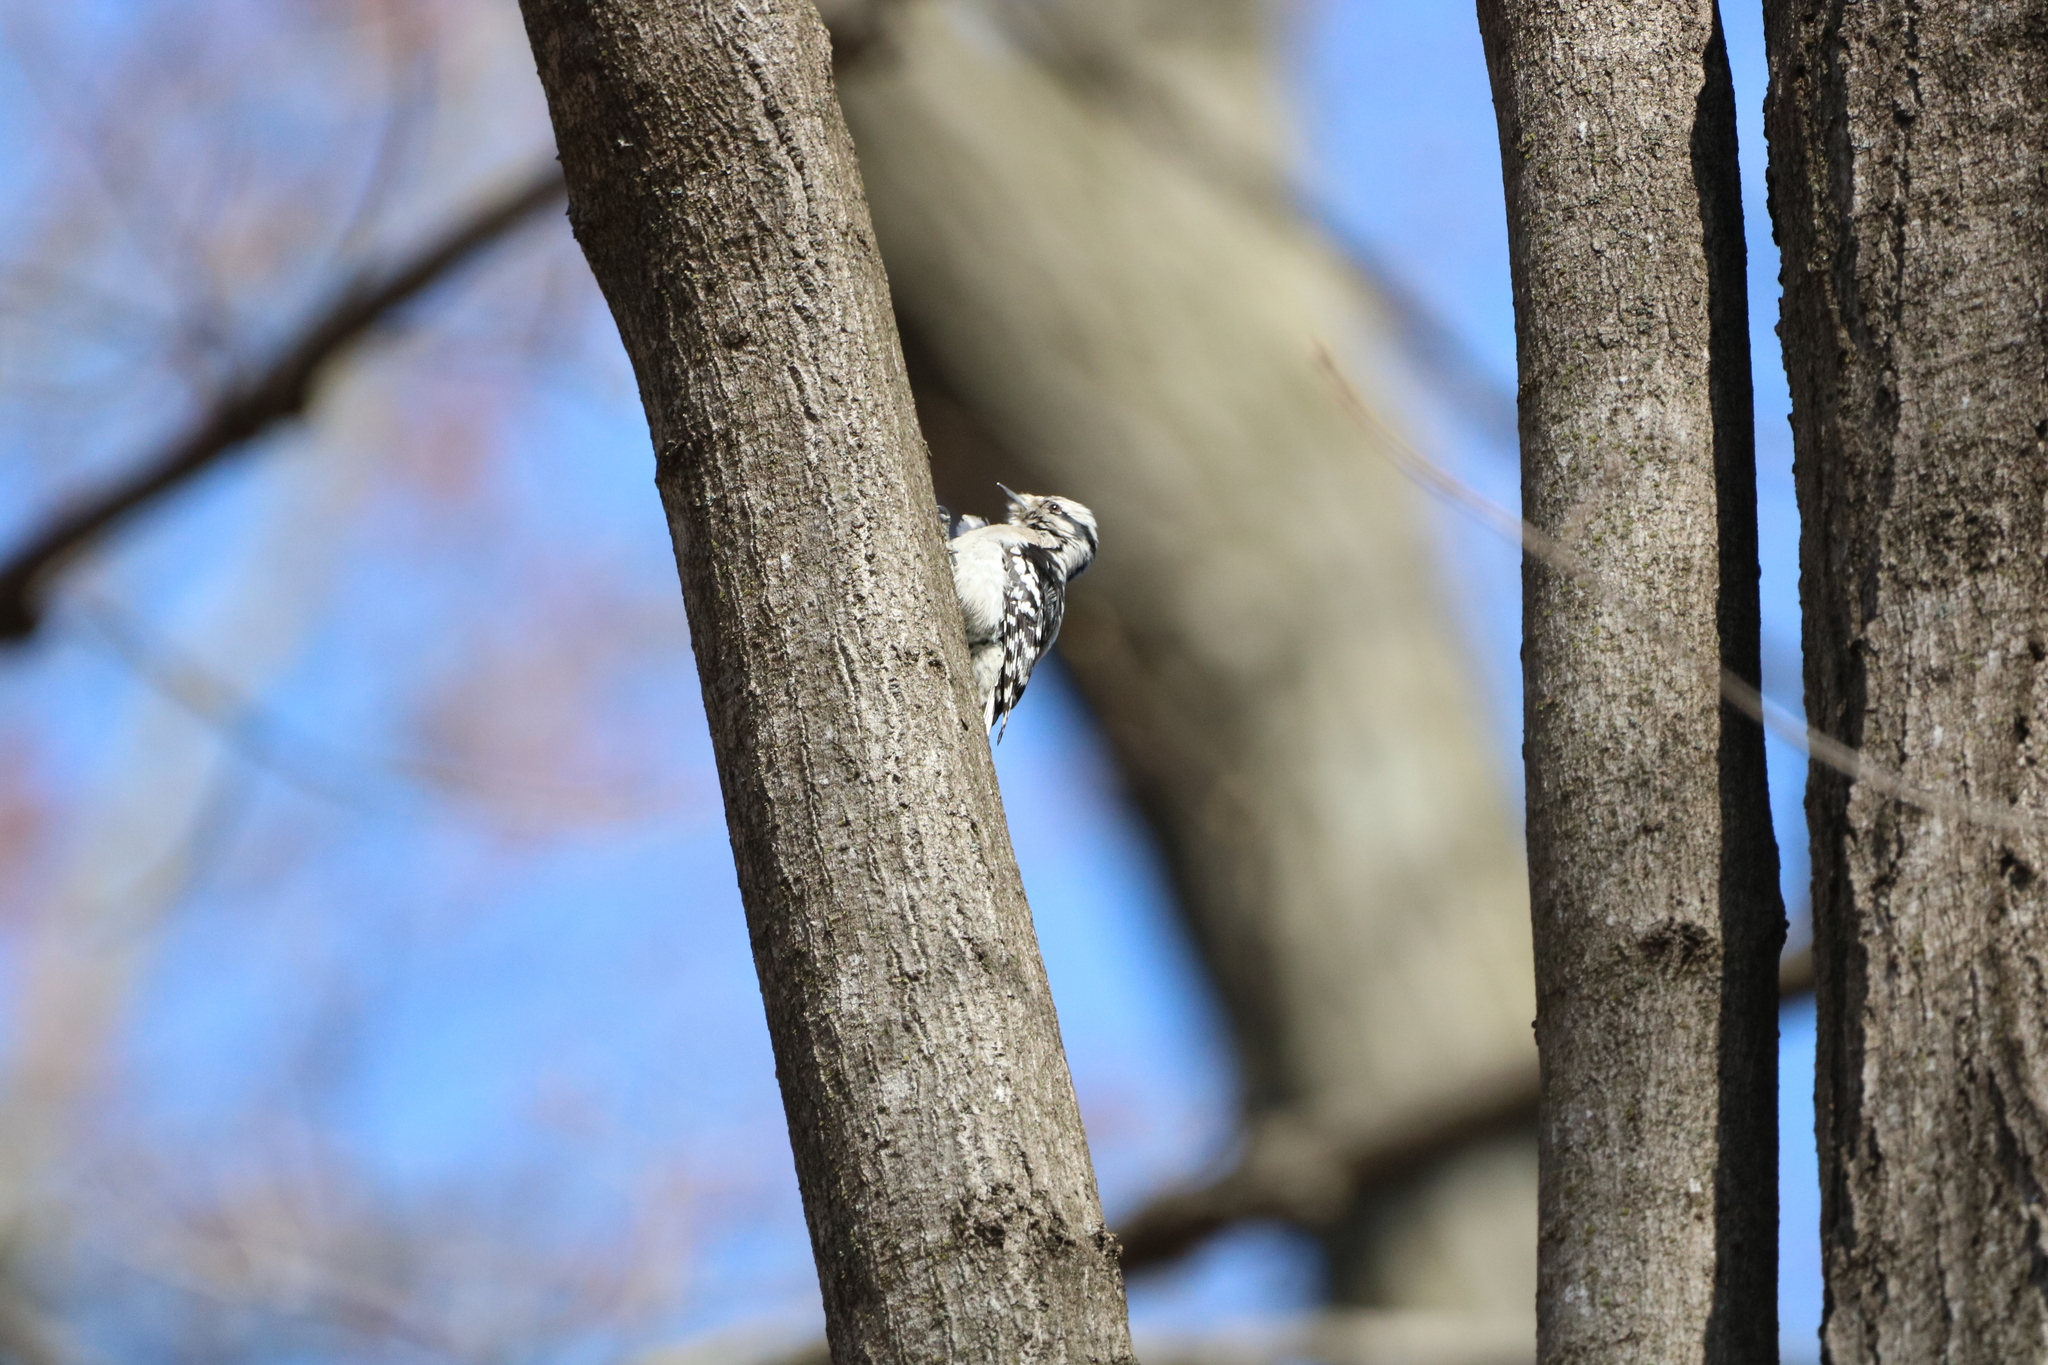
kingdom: Animalia
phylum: Chordata
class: Aves
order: Piciformes
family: Picidae
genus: Dryobates
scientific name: Dryobates pubescens
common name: Downy woodpecker
